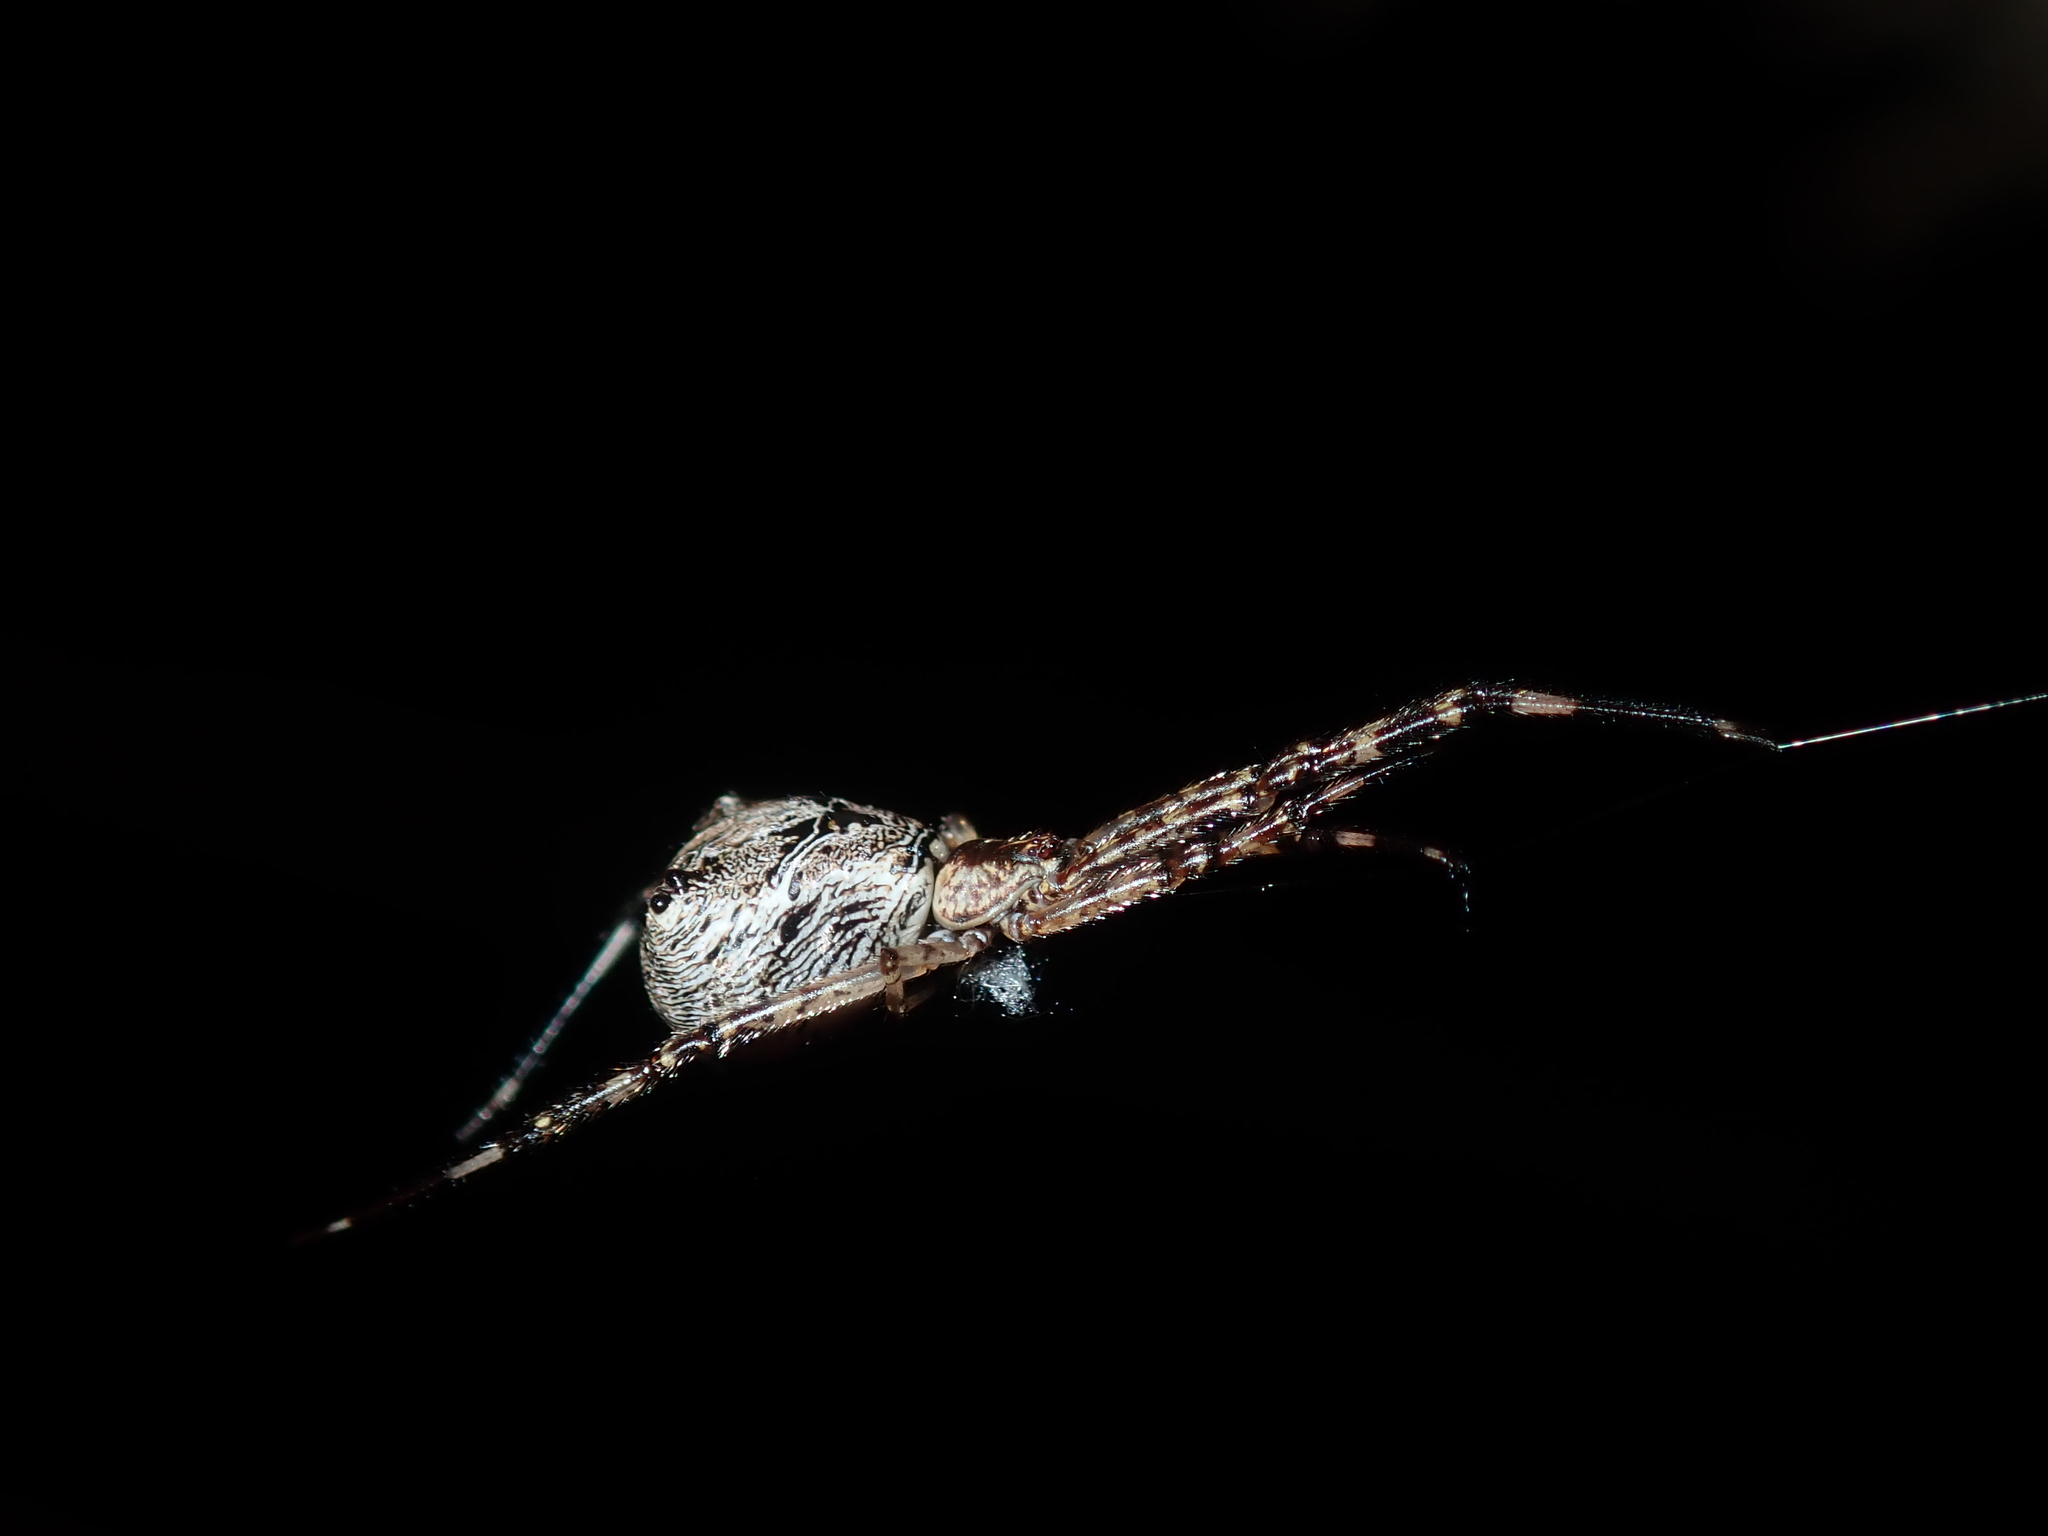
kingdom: Animalia
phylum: Arthropoda
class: Arachnida
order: Araneae
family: Theridiidae
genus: Janula
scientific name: Janula bicornis
